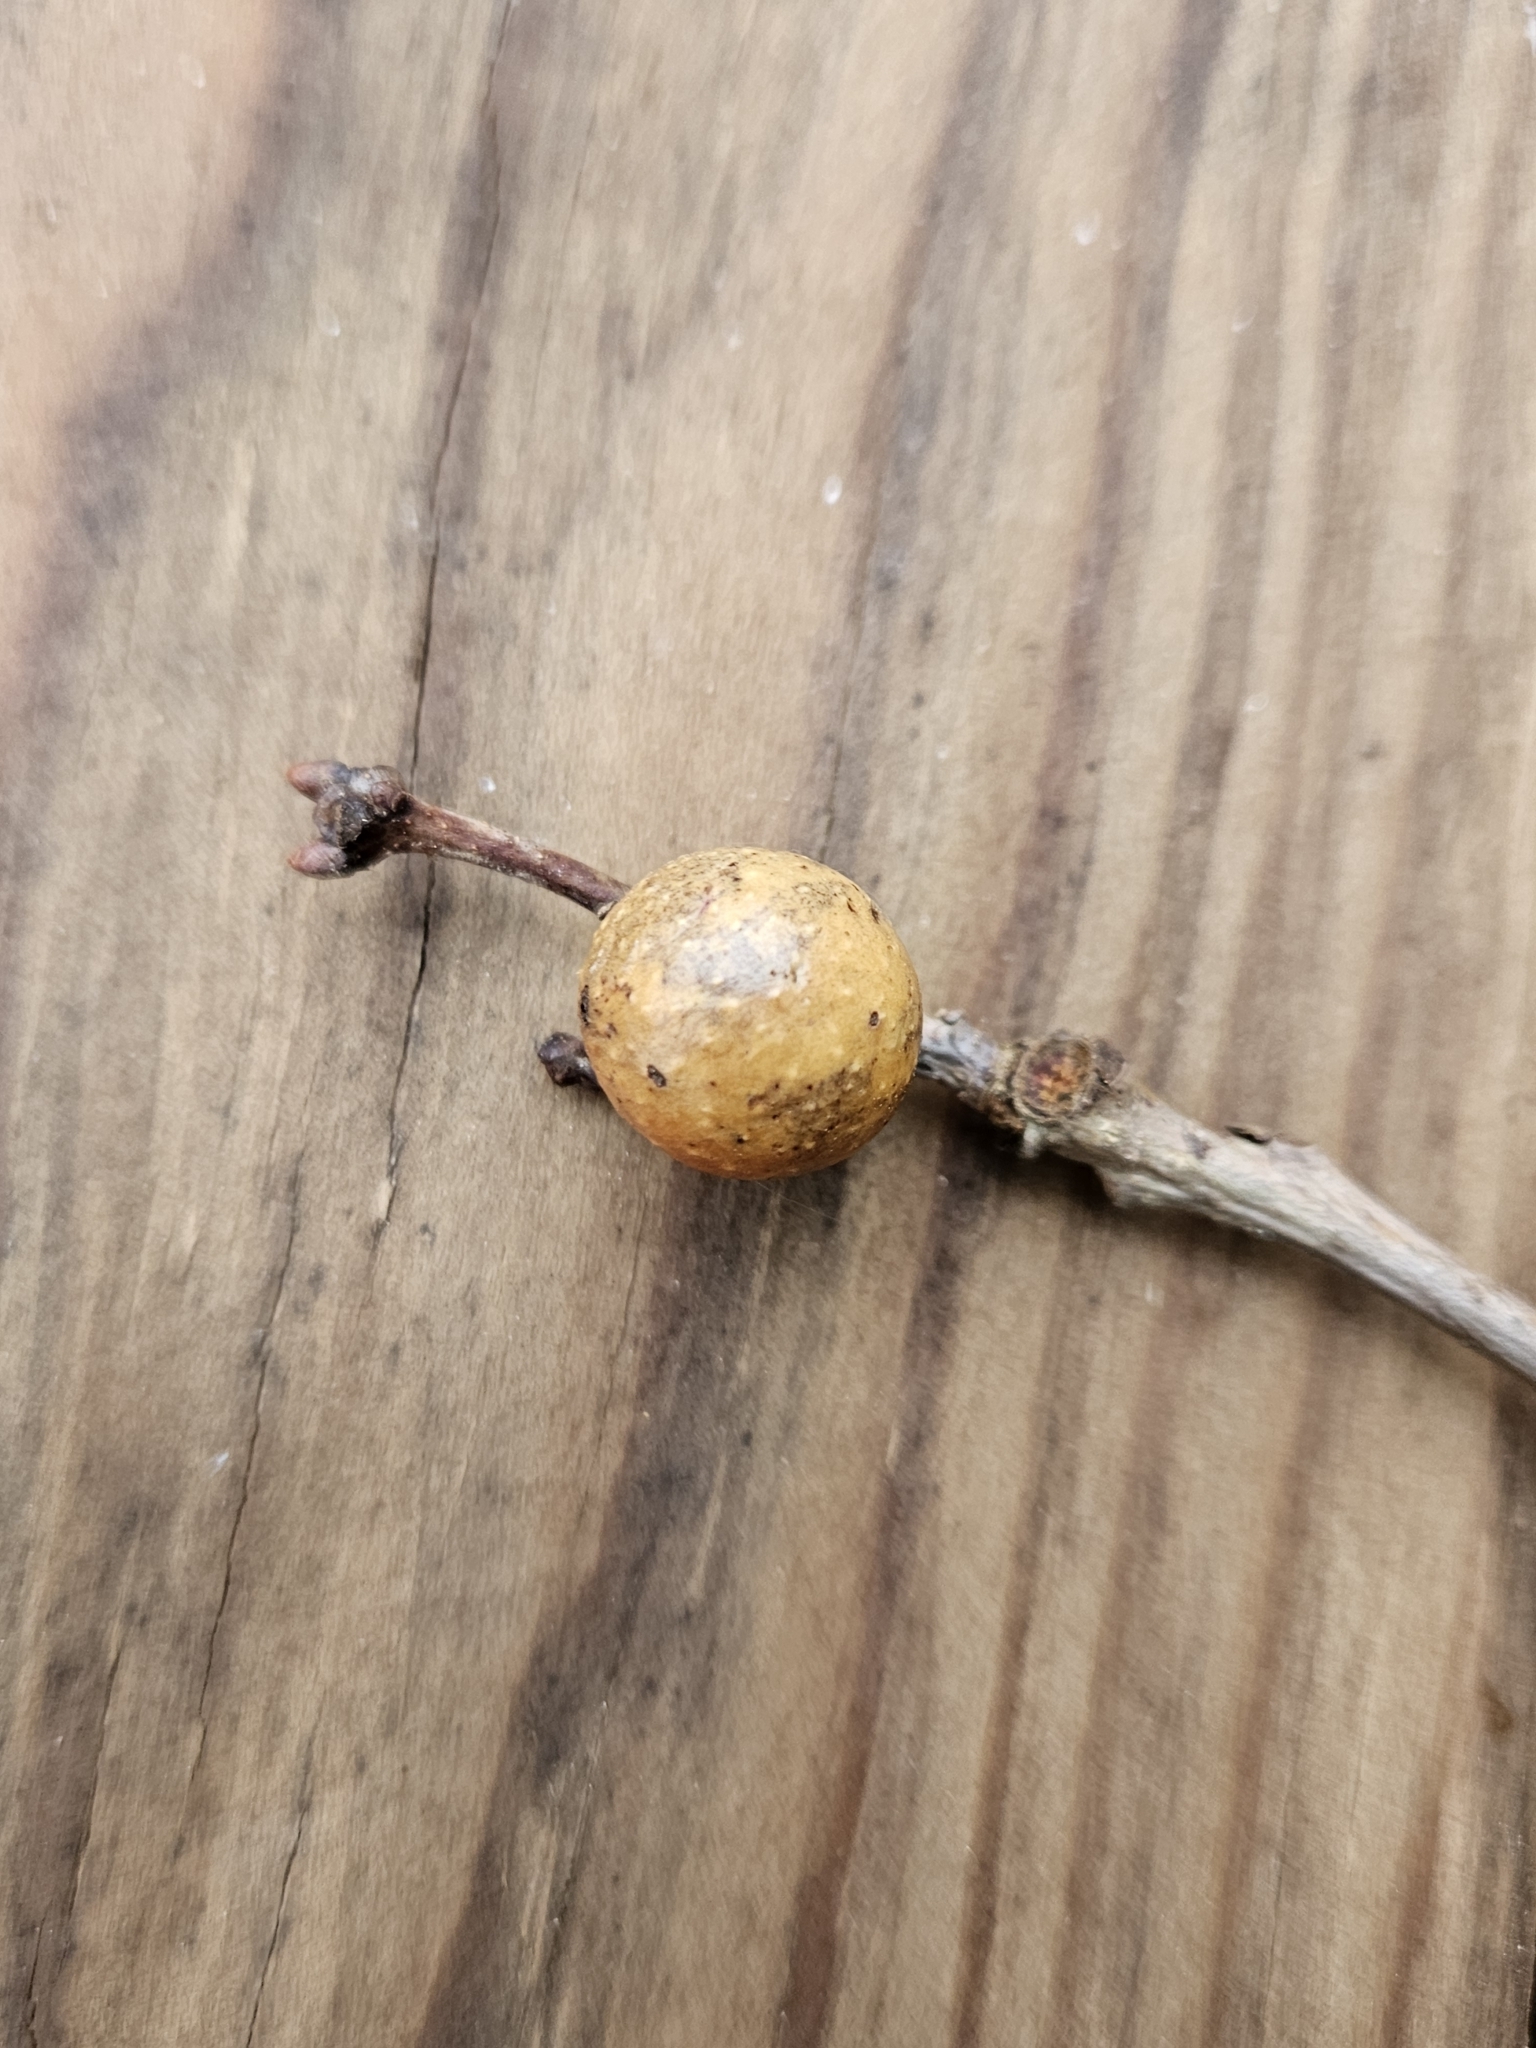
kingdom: Animalia
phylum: Arthropoda
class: Insecta
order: Hymenoptera
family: Cynipidae
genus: Disholcaspis
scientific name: Disholcaspis quercusglobulus
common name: Round bullet gall wasp
